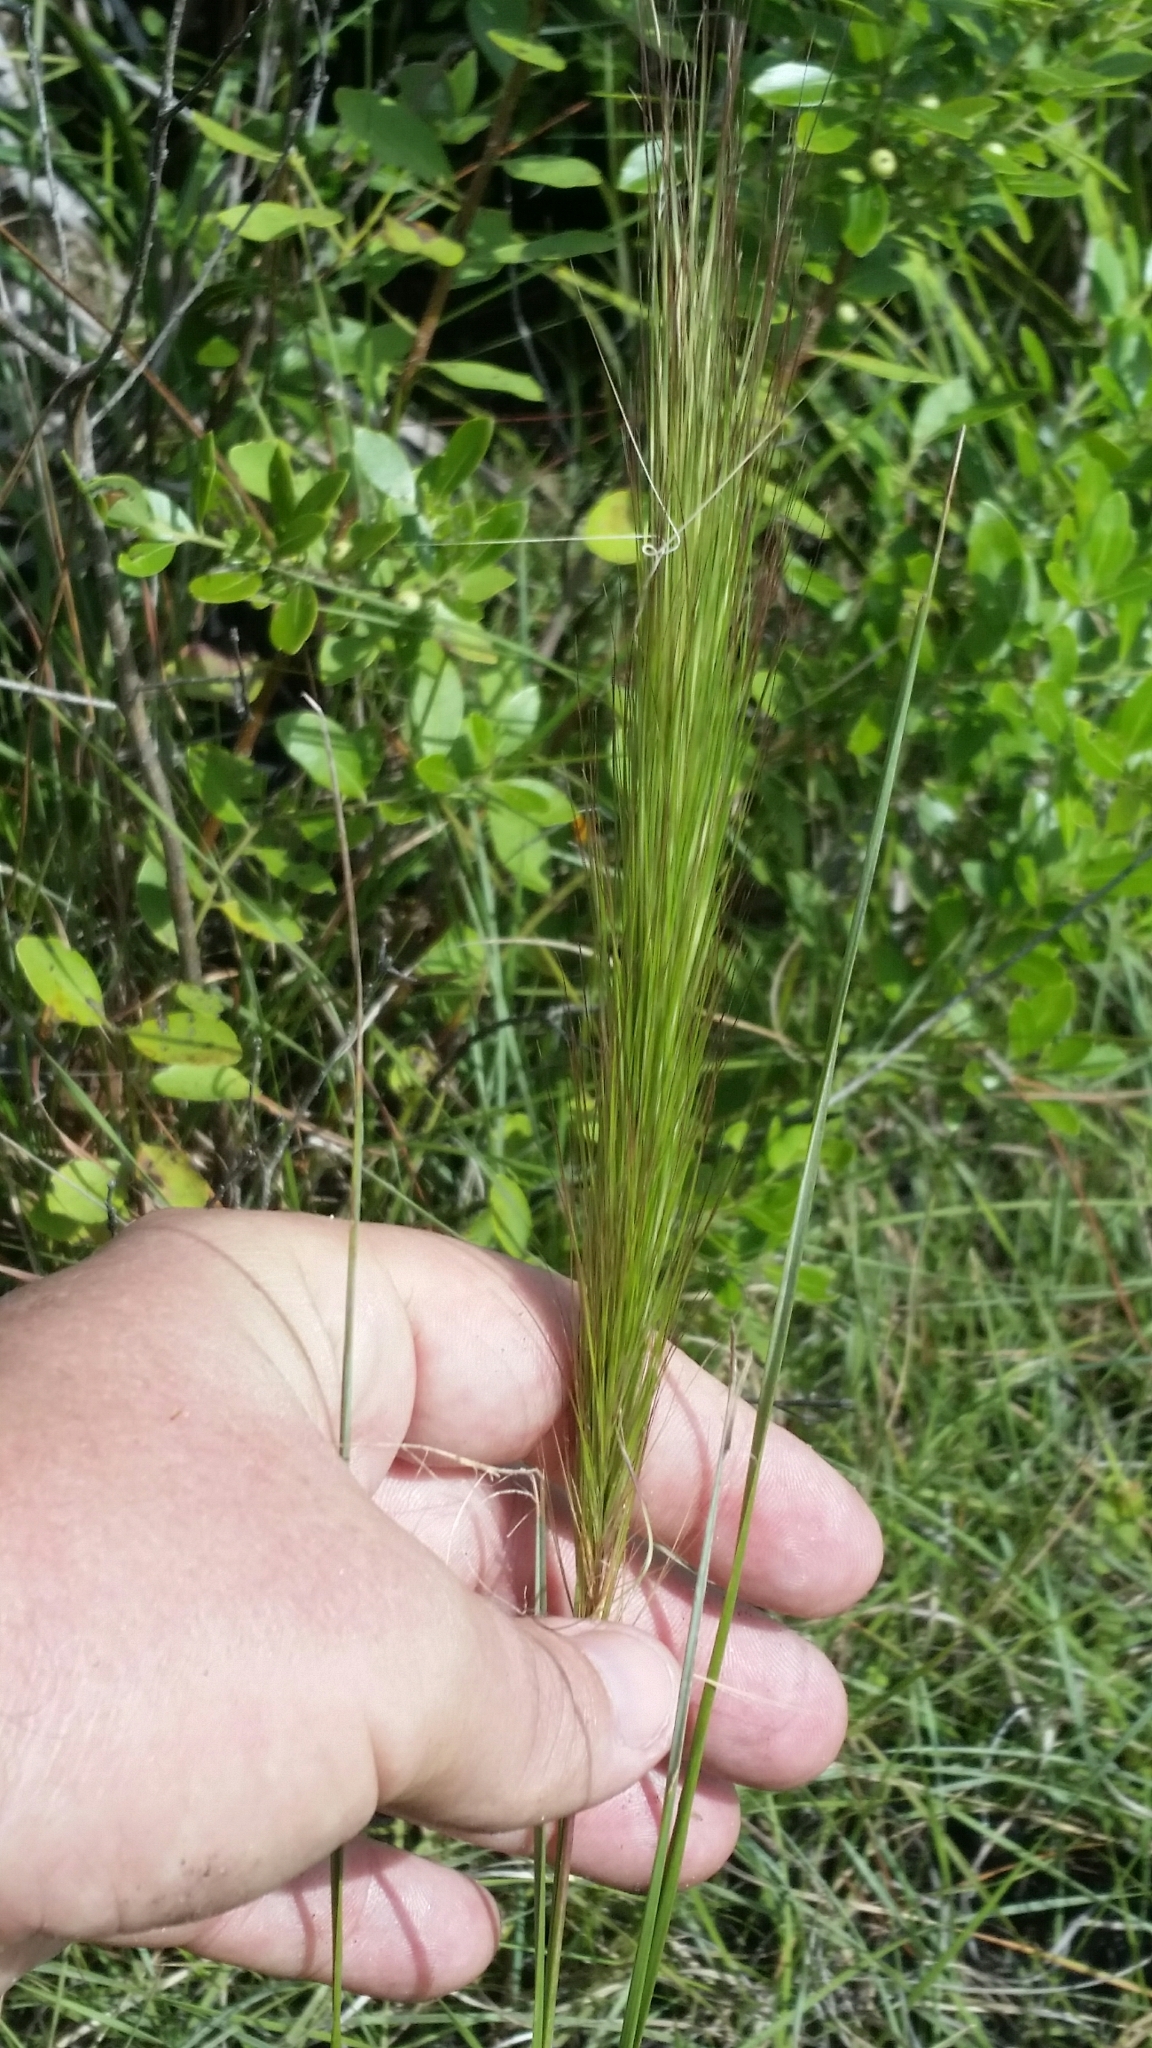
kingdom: Plantae
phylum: Tracheophyta
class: Liliopsida
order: Poales
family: Poaceae
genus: Aristida
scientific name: Aristida spiciformis
